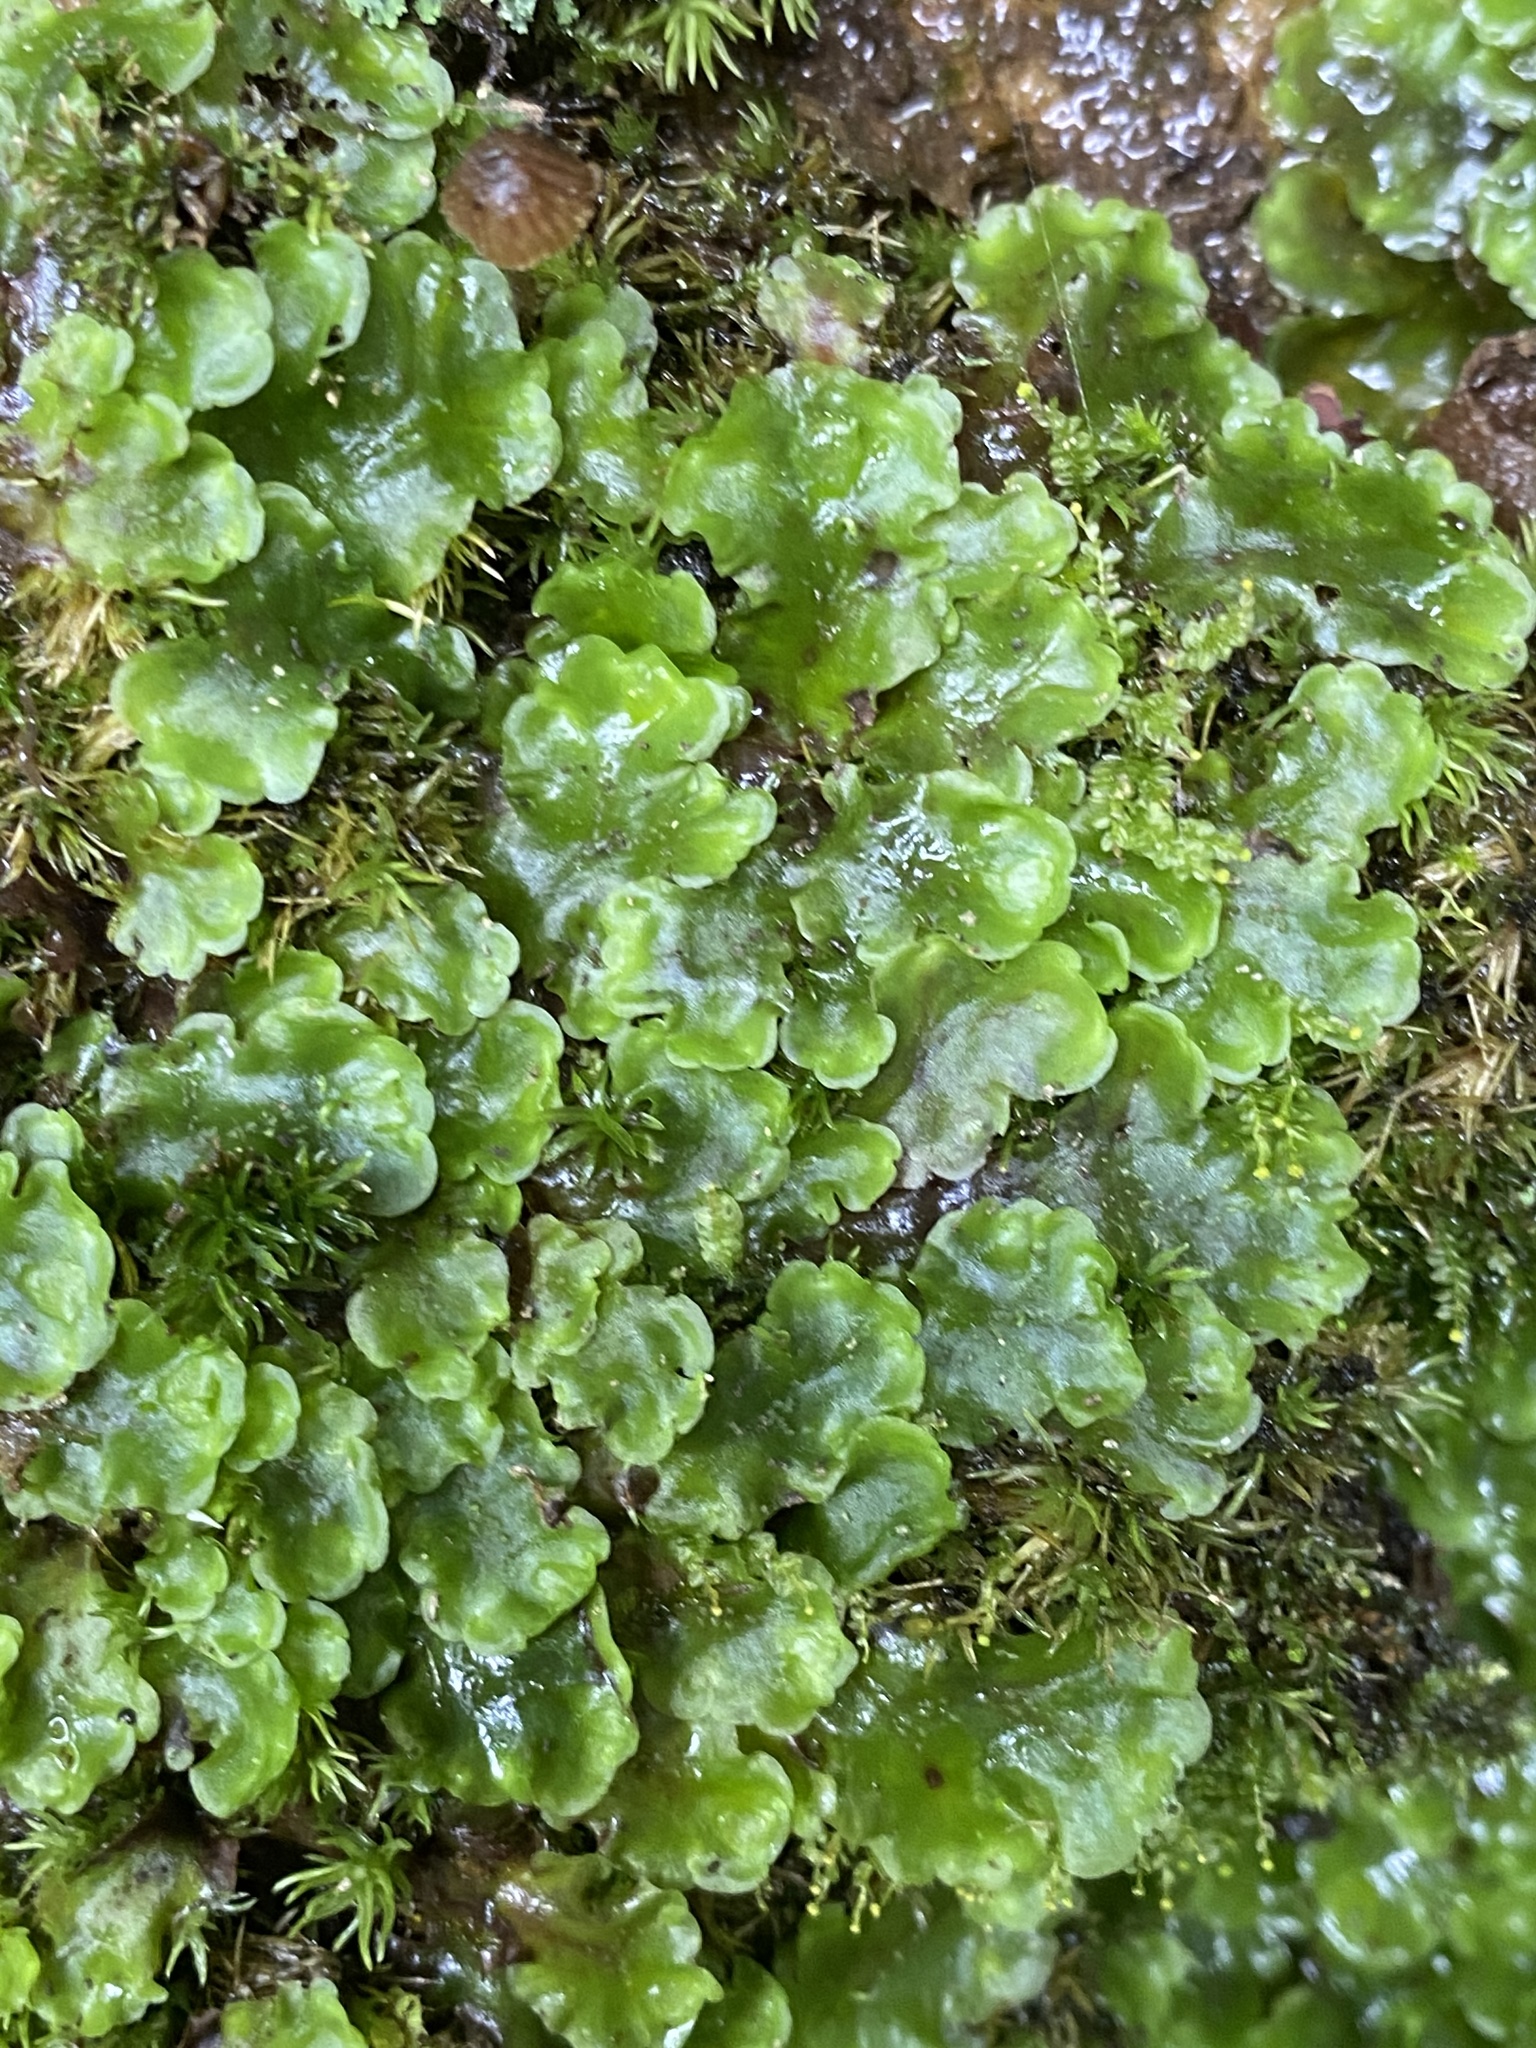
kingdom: Plantae
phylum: Marchantiophyta
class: Jungermanniopsida
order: Pelliales
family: Pelliaceae
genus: Pellia
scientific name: Pellia epiphylla
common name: Common pellia
